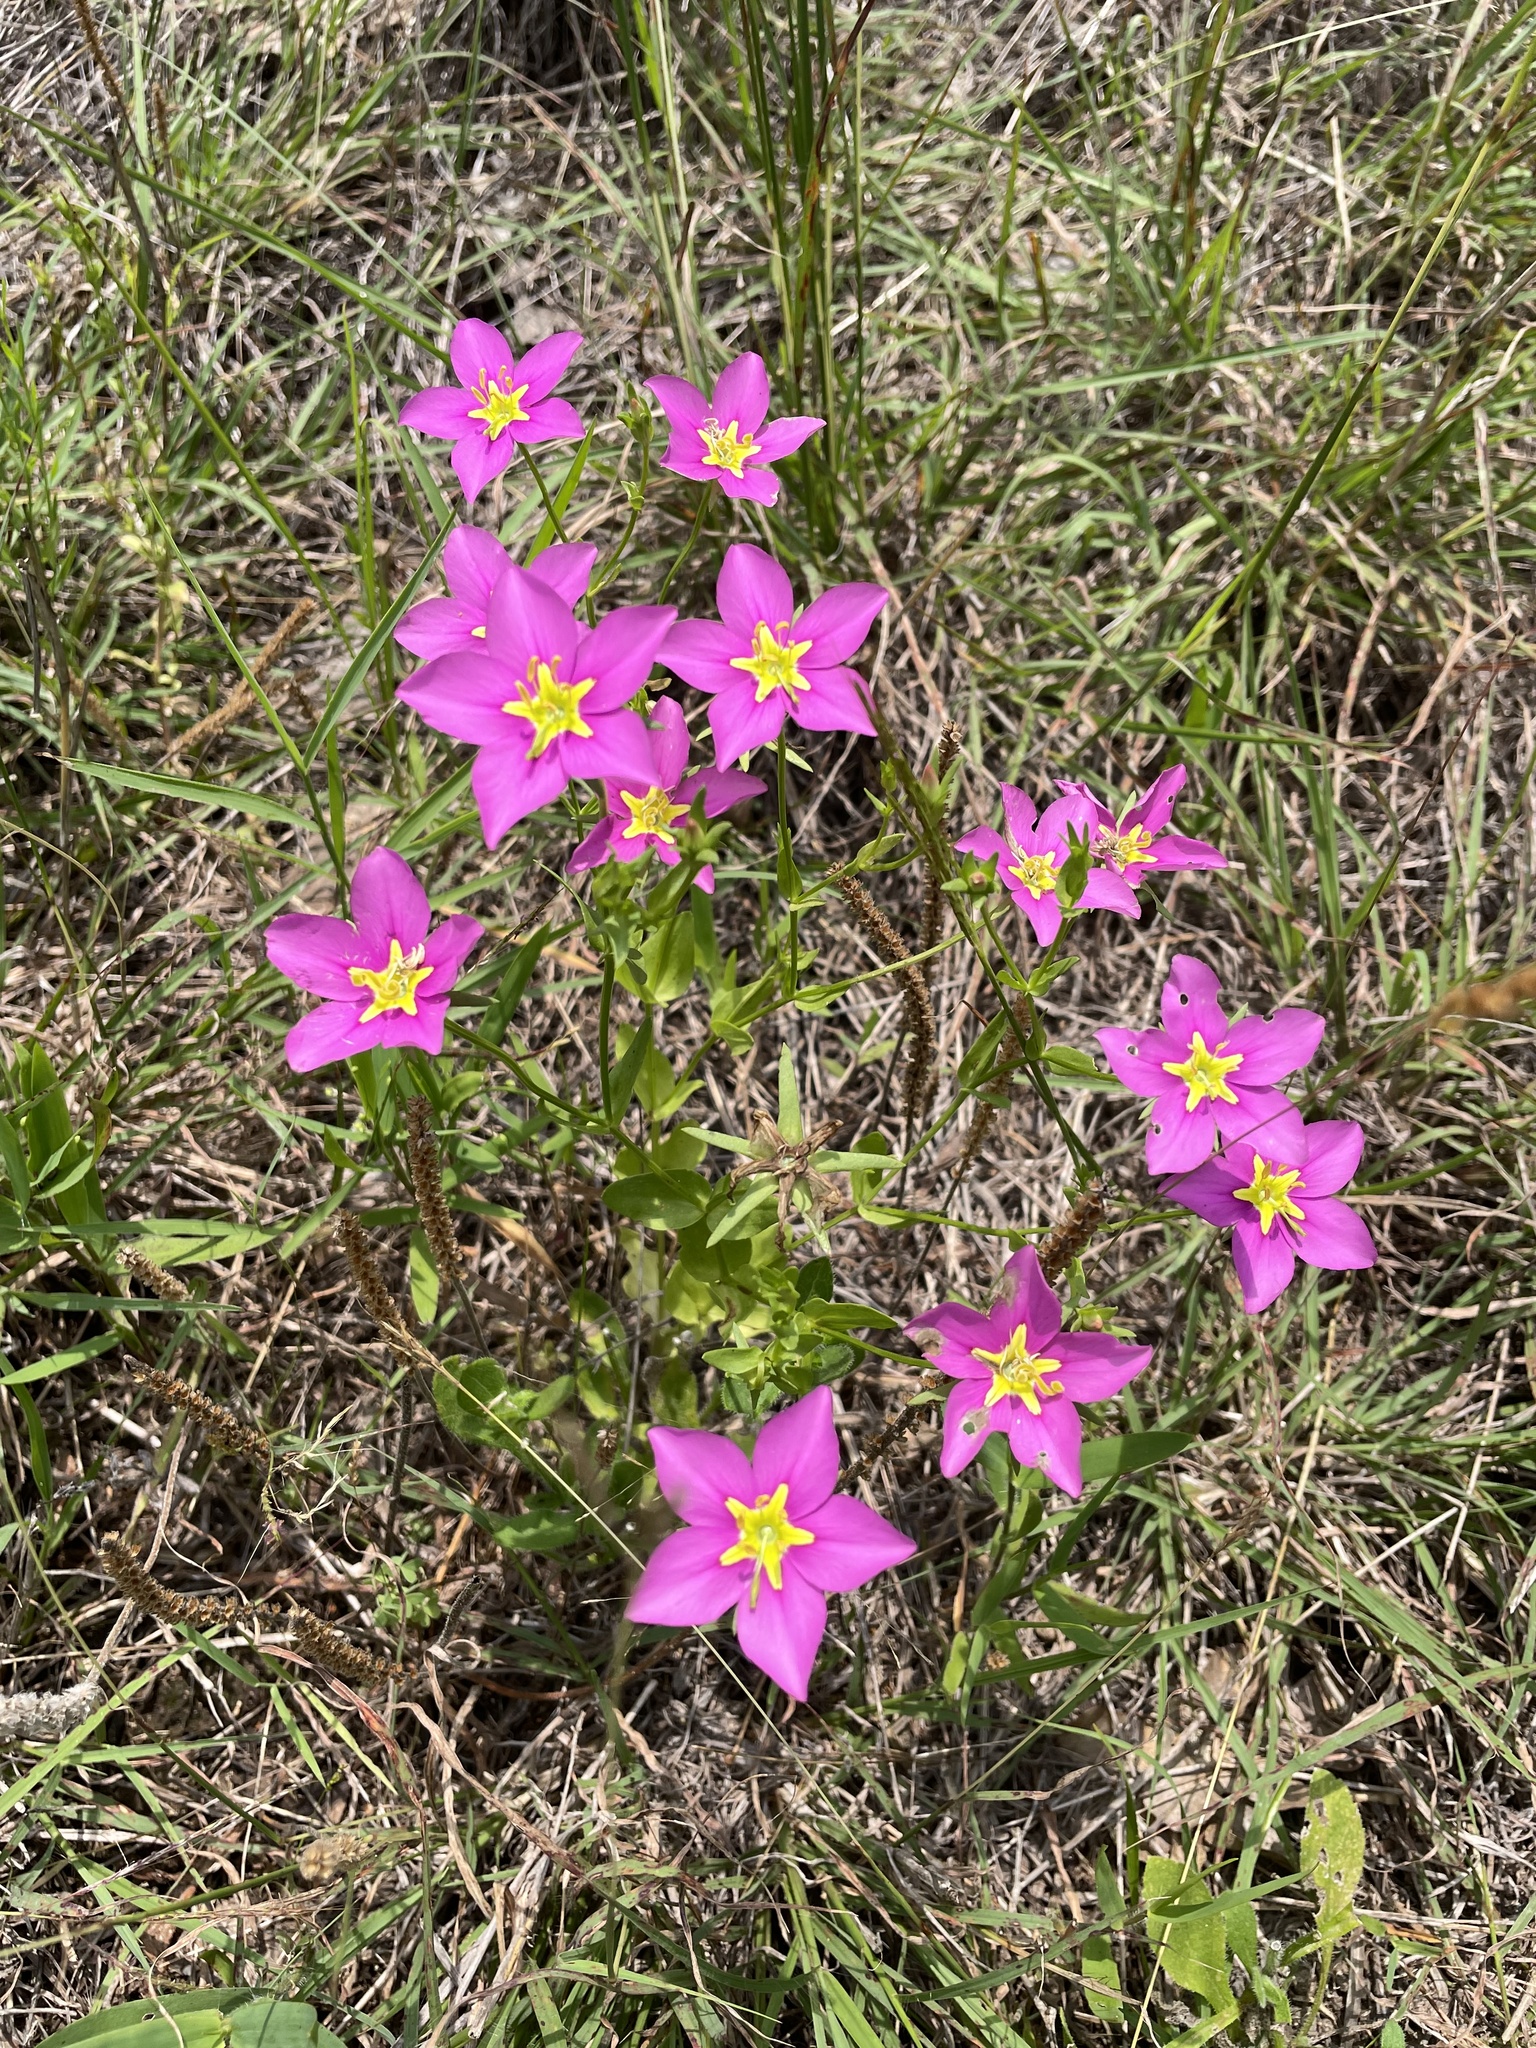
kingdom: Plantae
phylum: Tracheophyta
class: Magnoliopsida
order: Gentianales
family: Gentianaceae
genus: Sabatia
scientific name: Sabatia campestris
